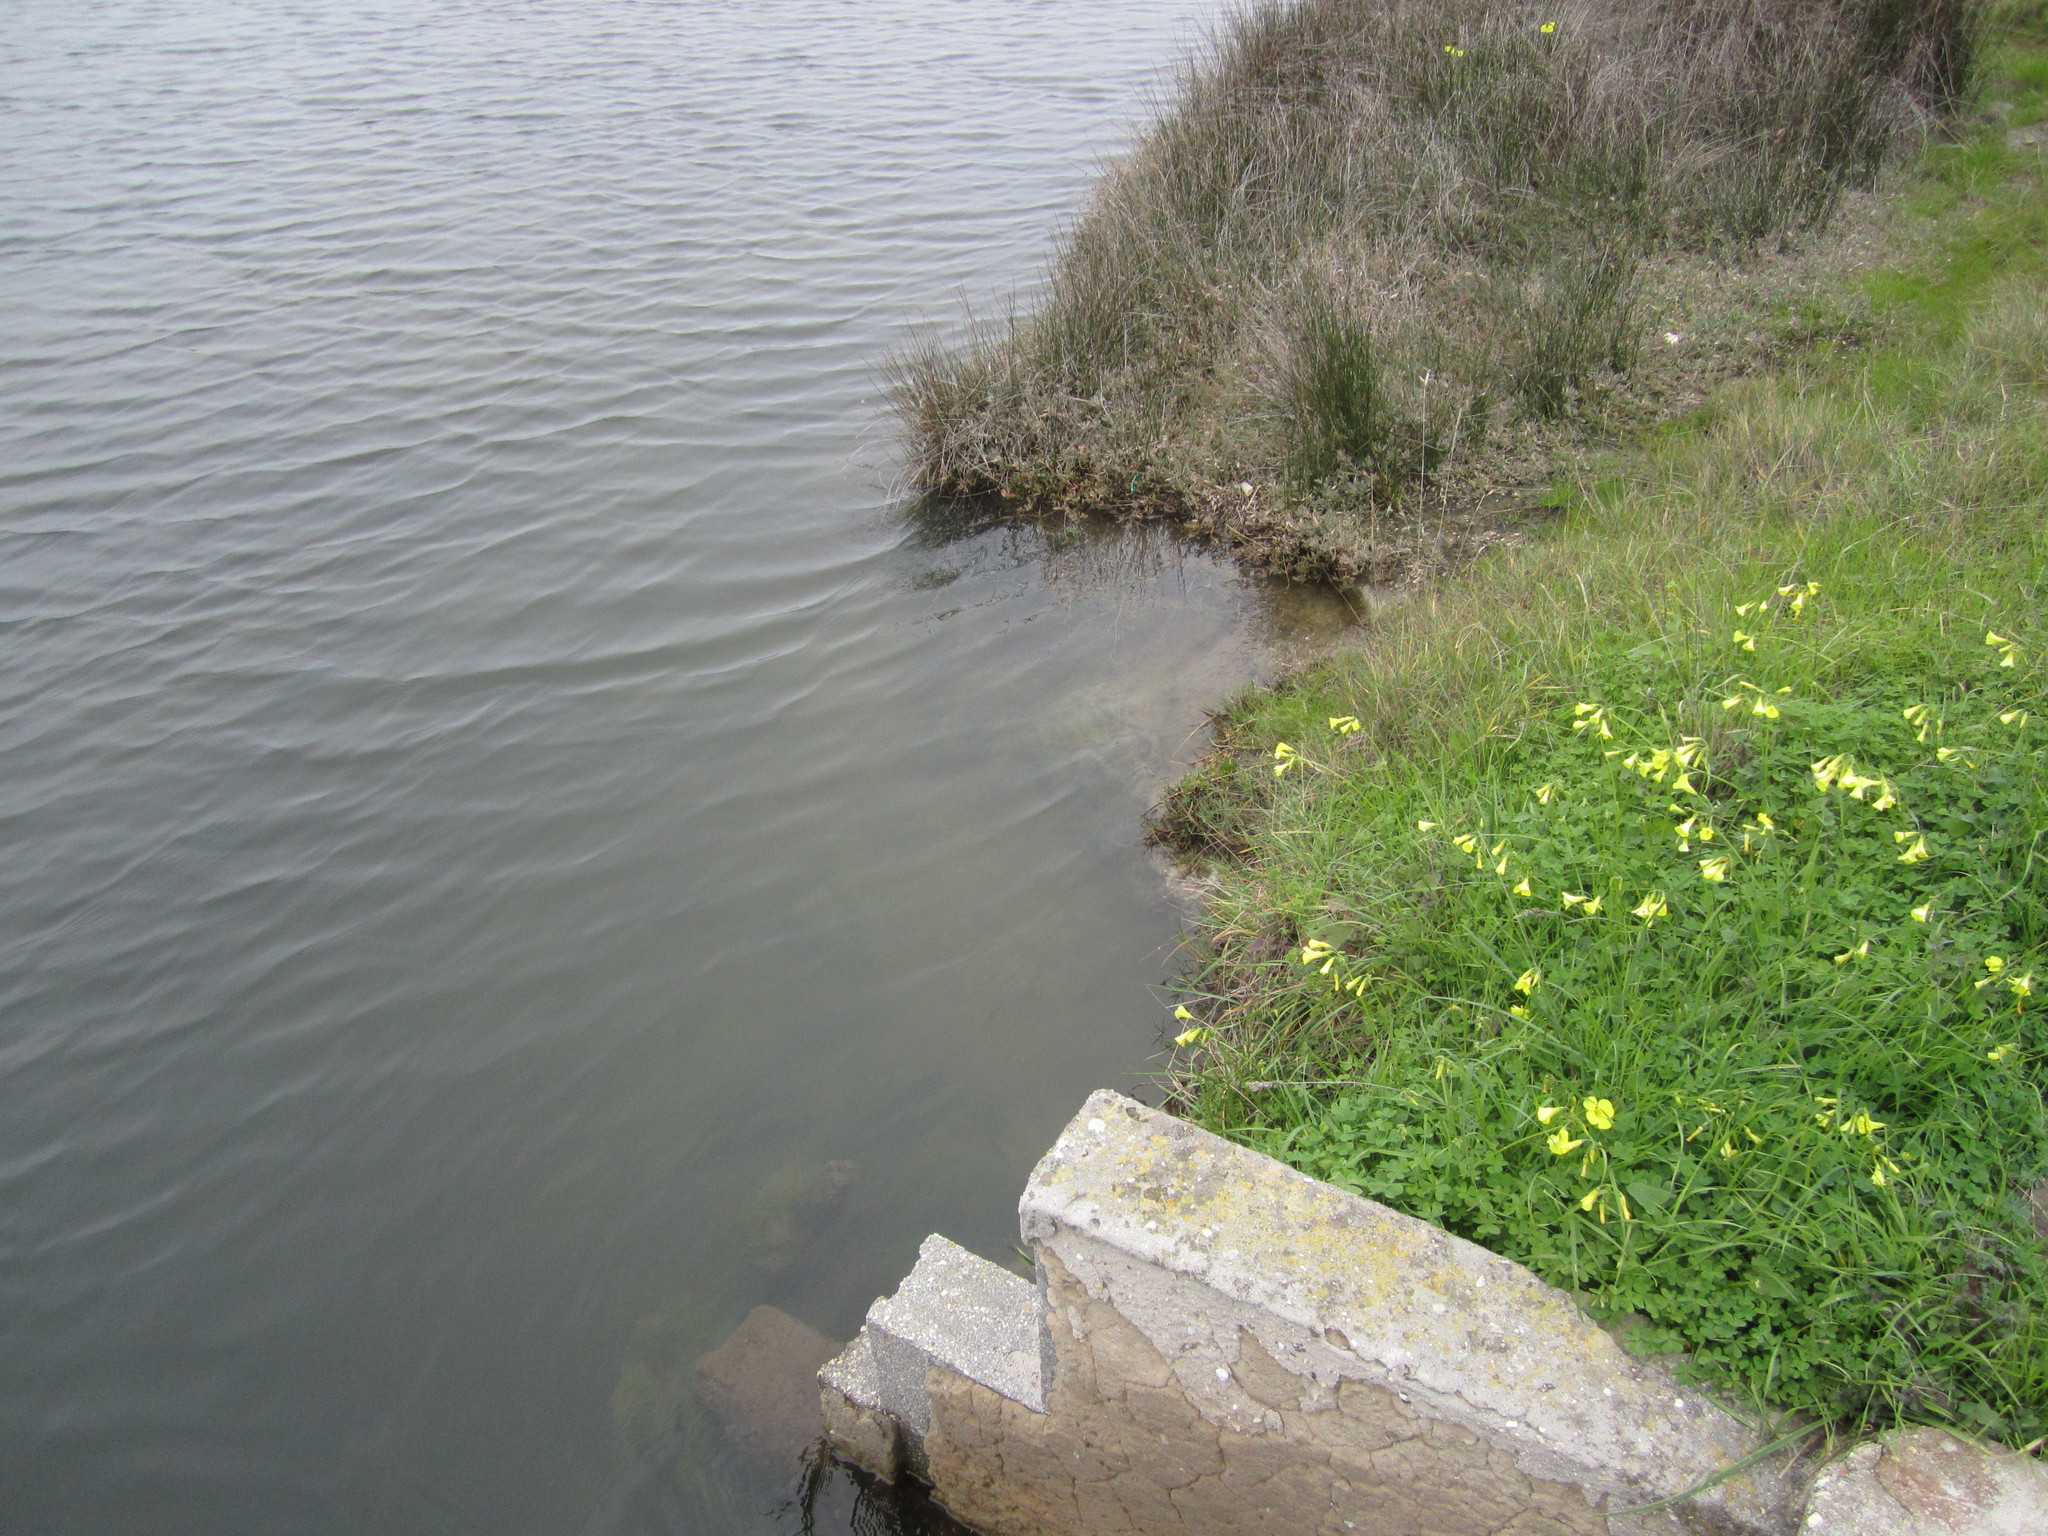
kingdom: Plantae
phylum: Tracheophyta
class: Magnoliopsida
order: Oxalidales
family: Oxalidaceae
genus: Oxalis
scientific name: Oxalis pes-caprae
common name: Bermuda-buttercup
